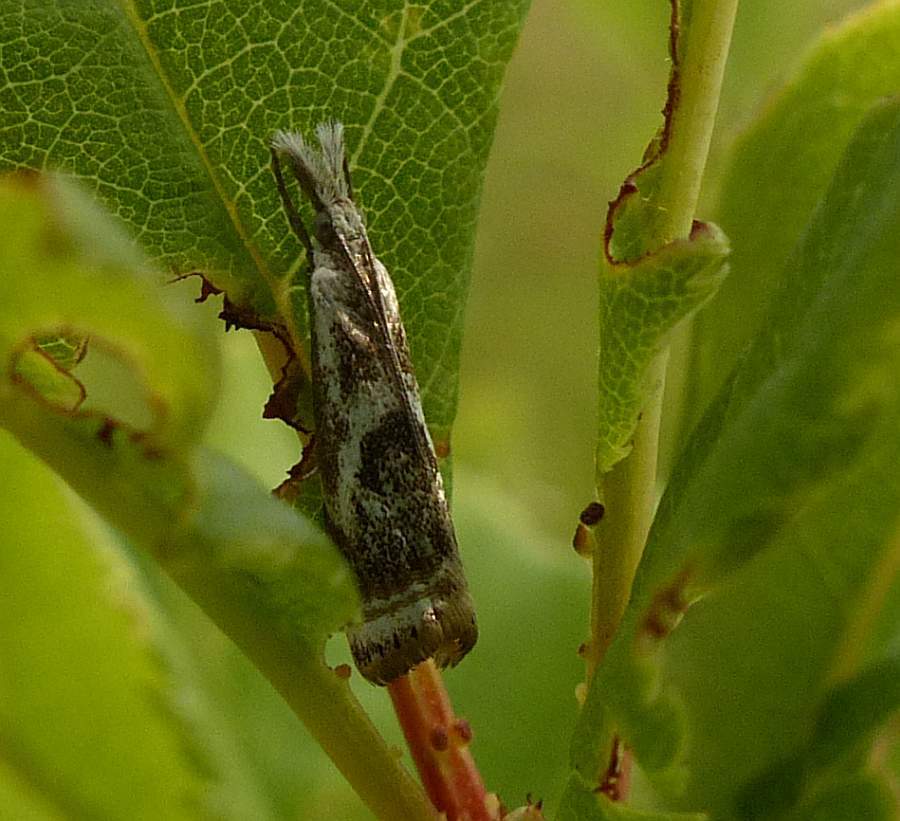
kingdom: Animalia
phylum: Arthropoda
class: Insecta
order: Lepidoptera
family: Crambidae
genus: Microcrambus
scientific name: Microcrambus elegans
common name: Elegant grass-veneer
